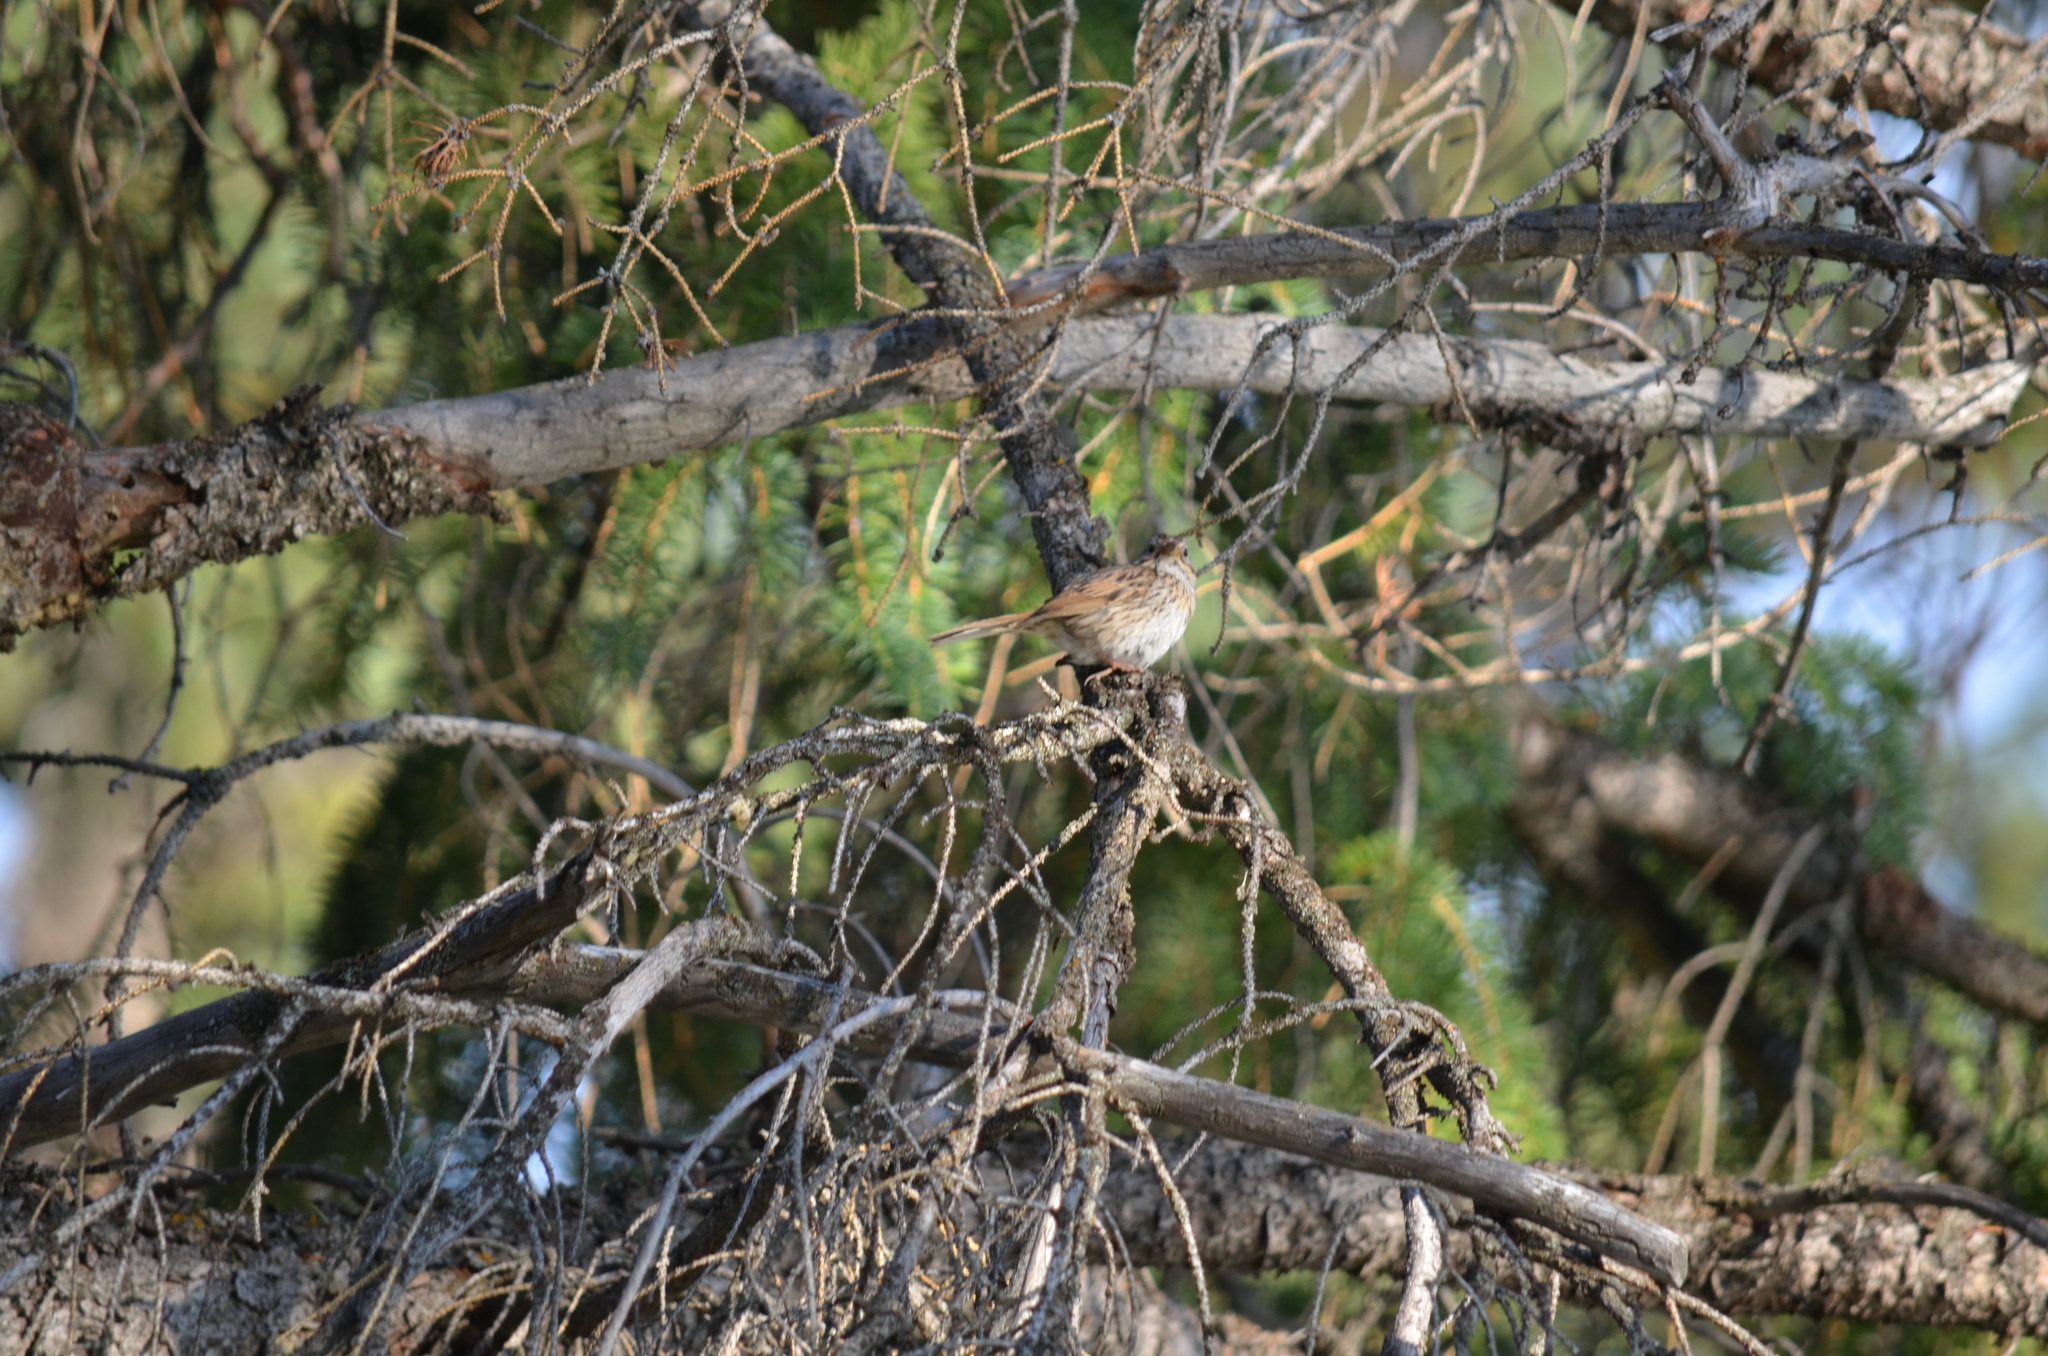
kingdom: Animalia
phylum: Chordata
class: Aves
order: Passeriformes
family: Passerellidae
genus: Melospiza
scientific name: Melospiza lincolnii
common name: Lincoln's sparrow
